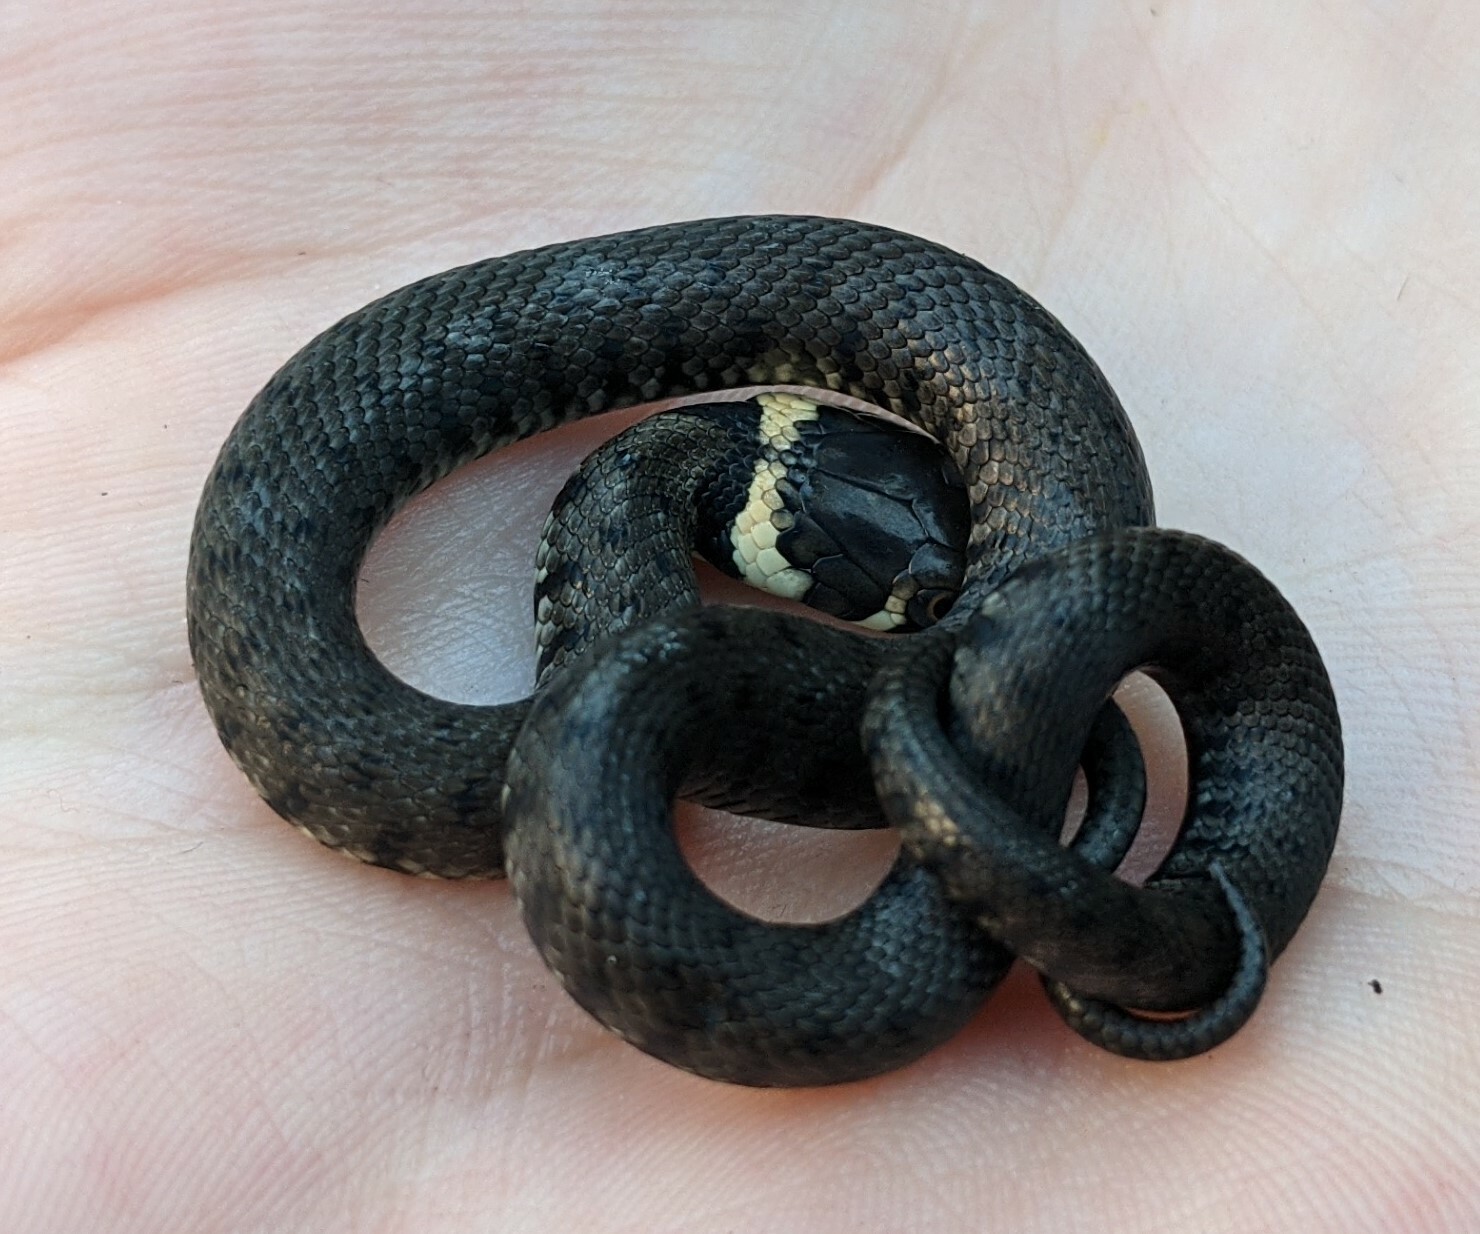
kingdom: Animalia
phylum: Chordata
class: Squamata
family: Colubridae
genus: Natrix
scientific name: Natrix helvetica
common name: Banded grass snake
